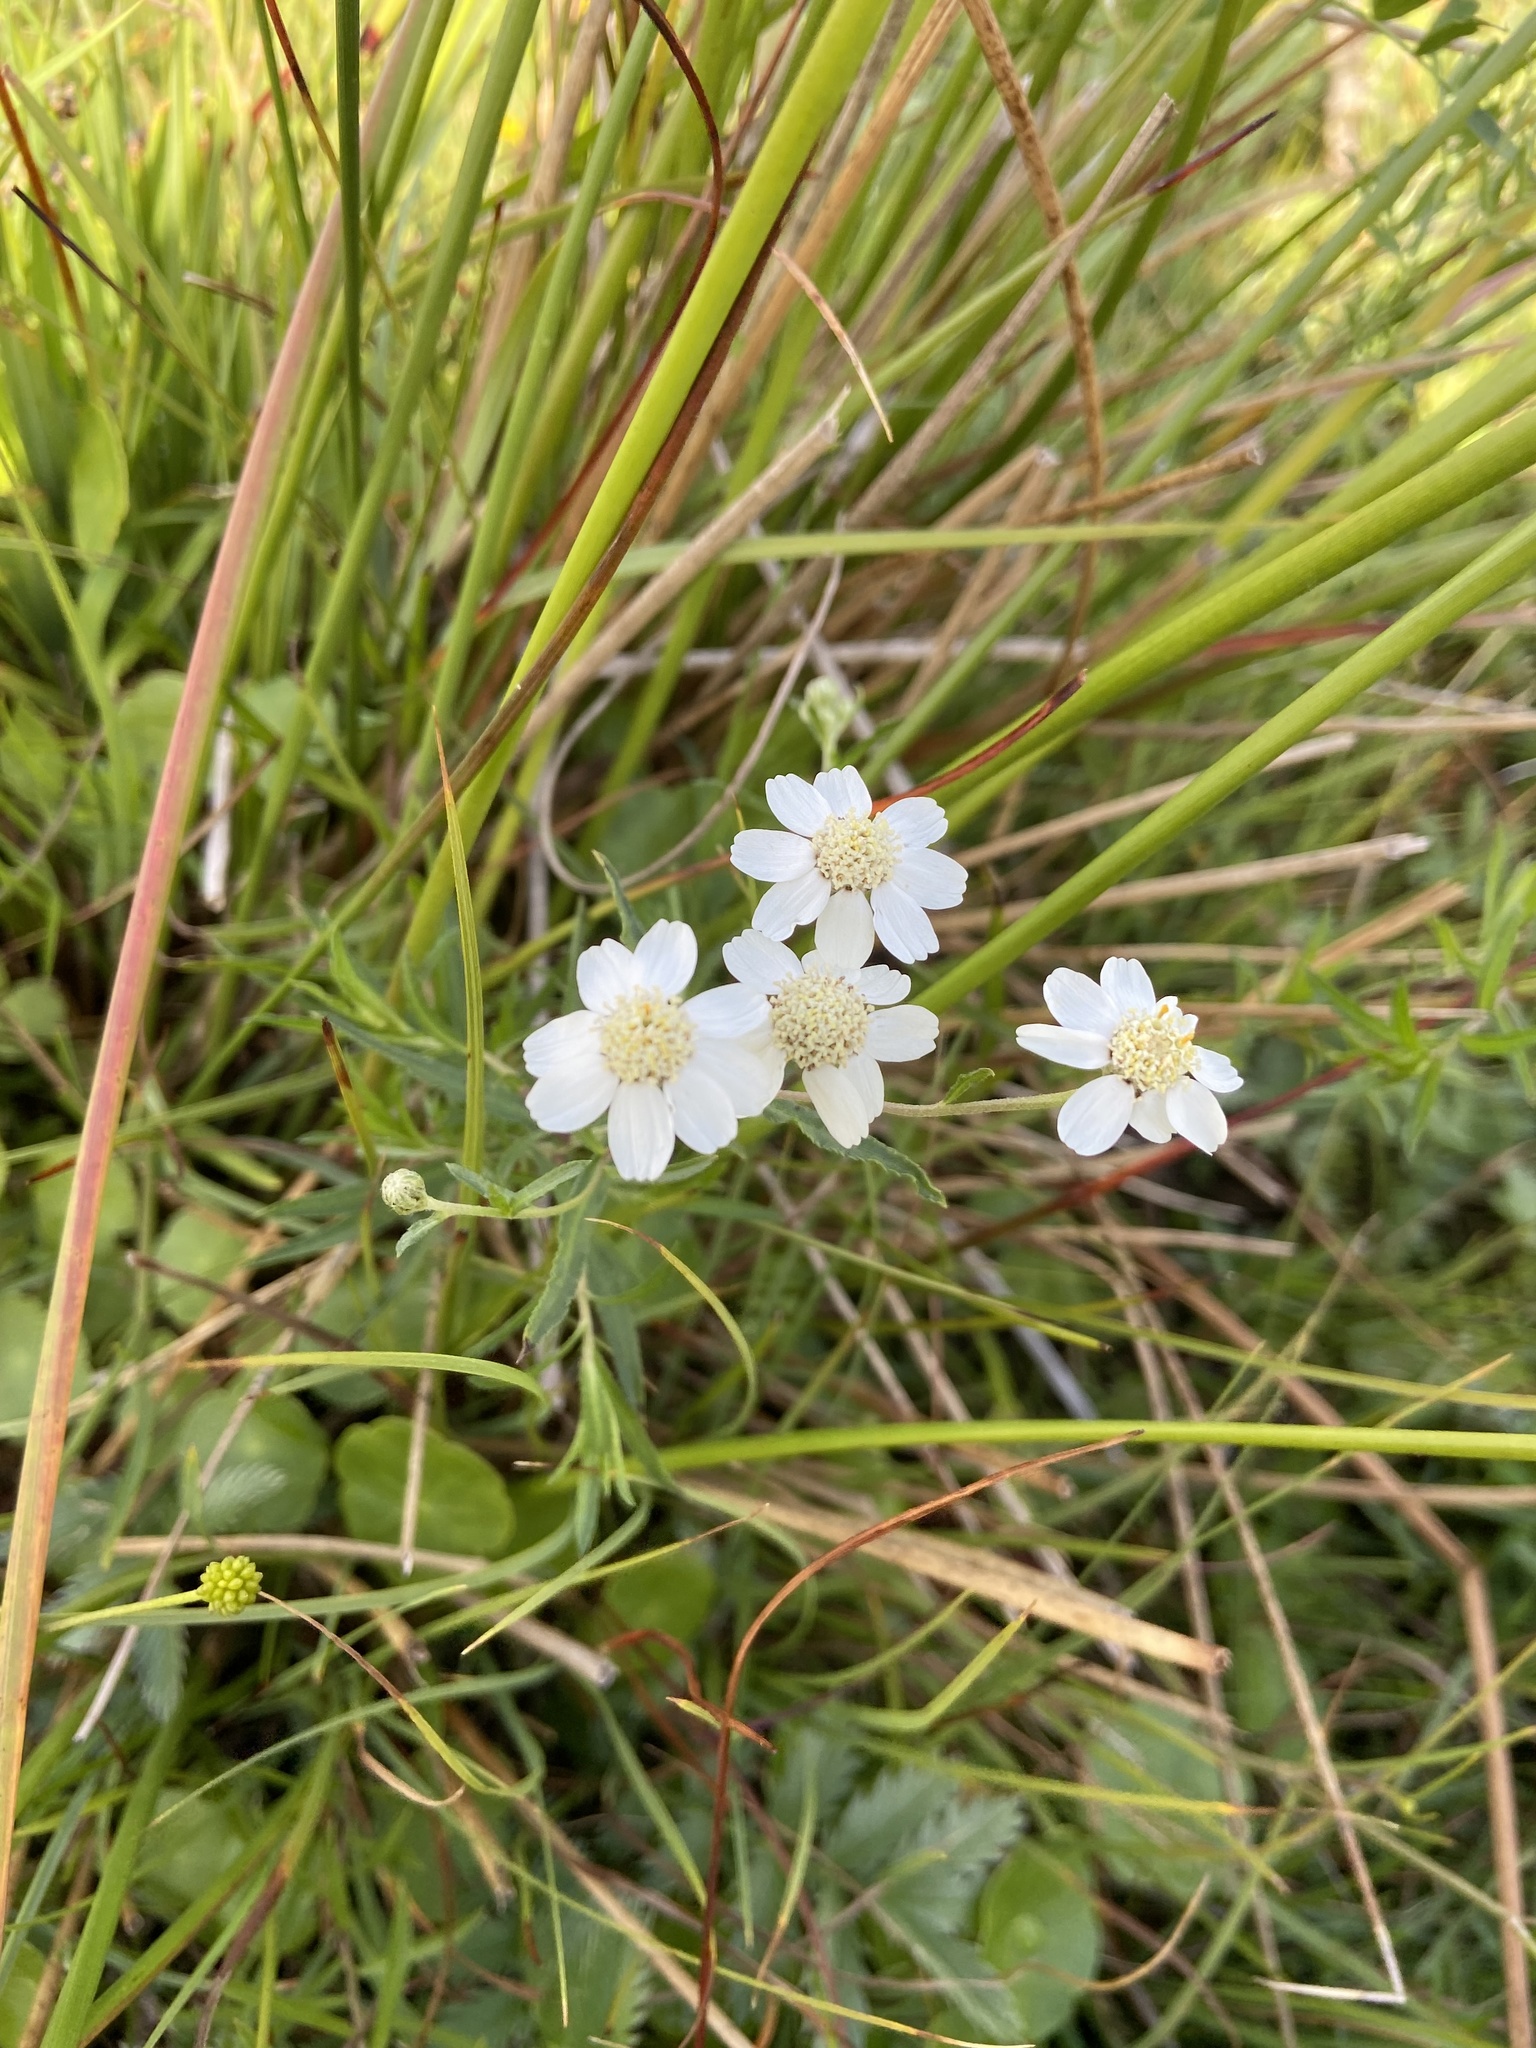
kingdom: Plantae
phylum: Tracheophyta
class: Magnoliopsida
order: Asterales
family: Asteraceae
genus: Achillea
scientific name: Achillea ptarmica
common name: Sneezeweed
